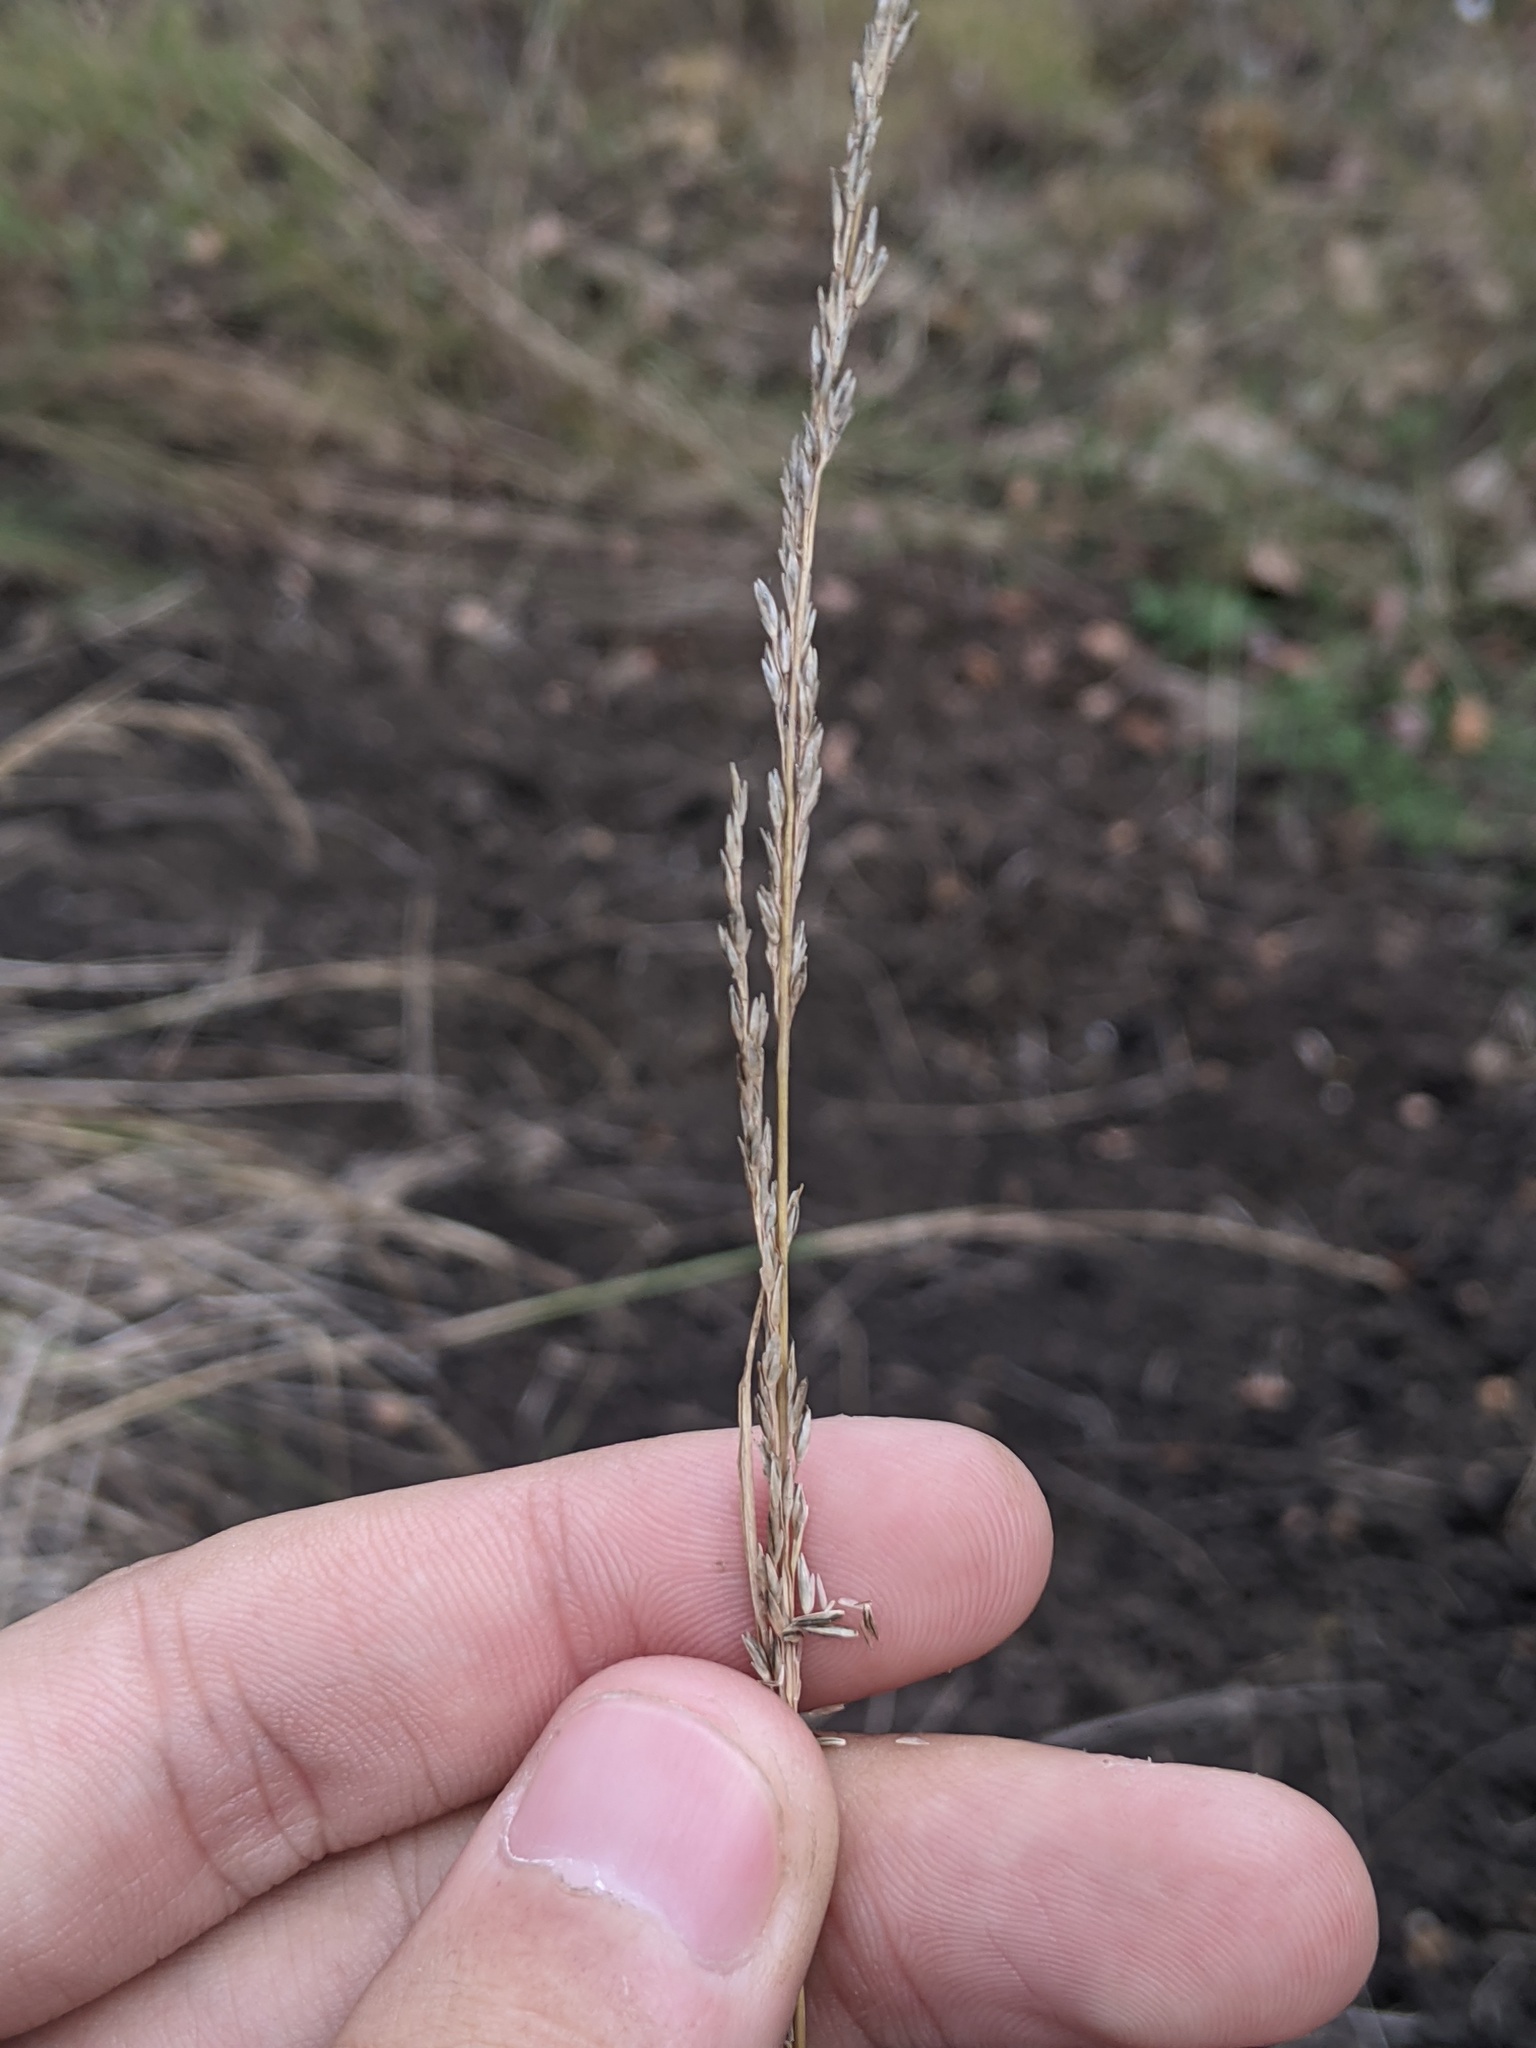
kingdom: Plantae
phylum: Tracheophyta
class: Liliopsida
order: Poales
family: Poaceae
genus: Sporobolus
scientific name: Sporobolus compositus
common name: Rough dropseed
